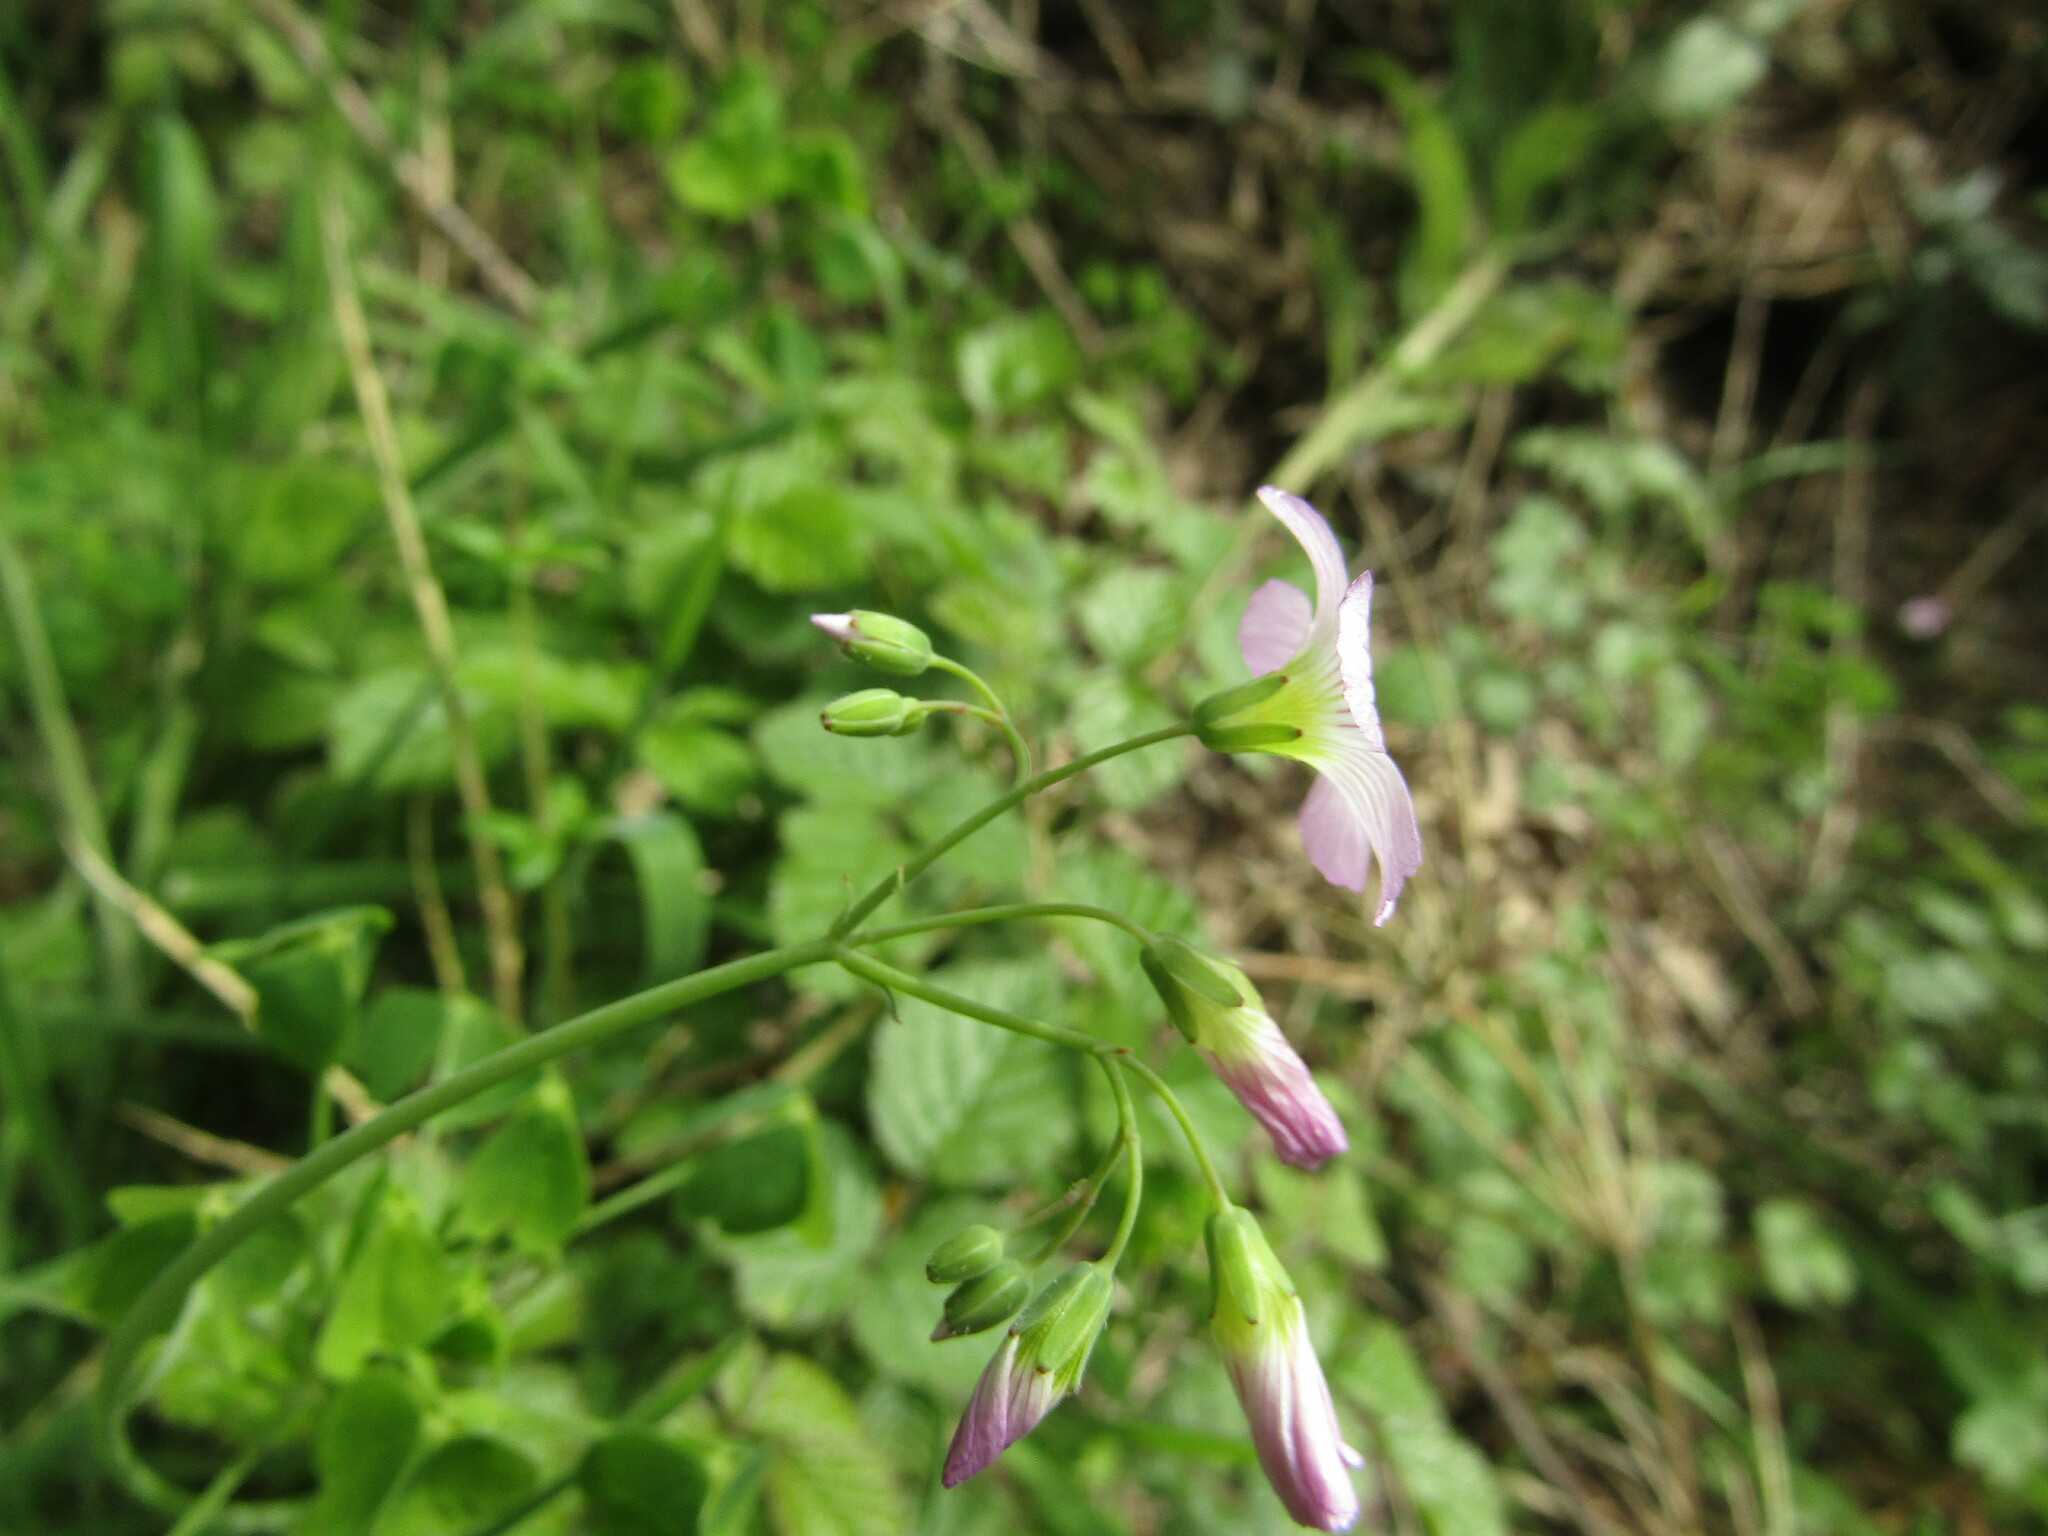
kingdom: Plantae
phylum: Tracheophyta
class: Magnoliopsida
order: Oxalidales
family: Oxalidaceae
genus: Oxalis
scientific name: Oxalis rosea
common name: Annual pink-sorrel
